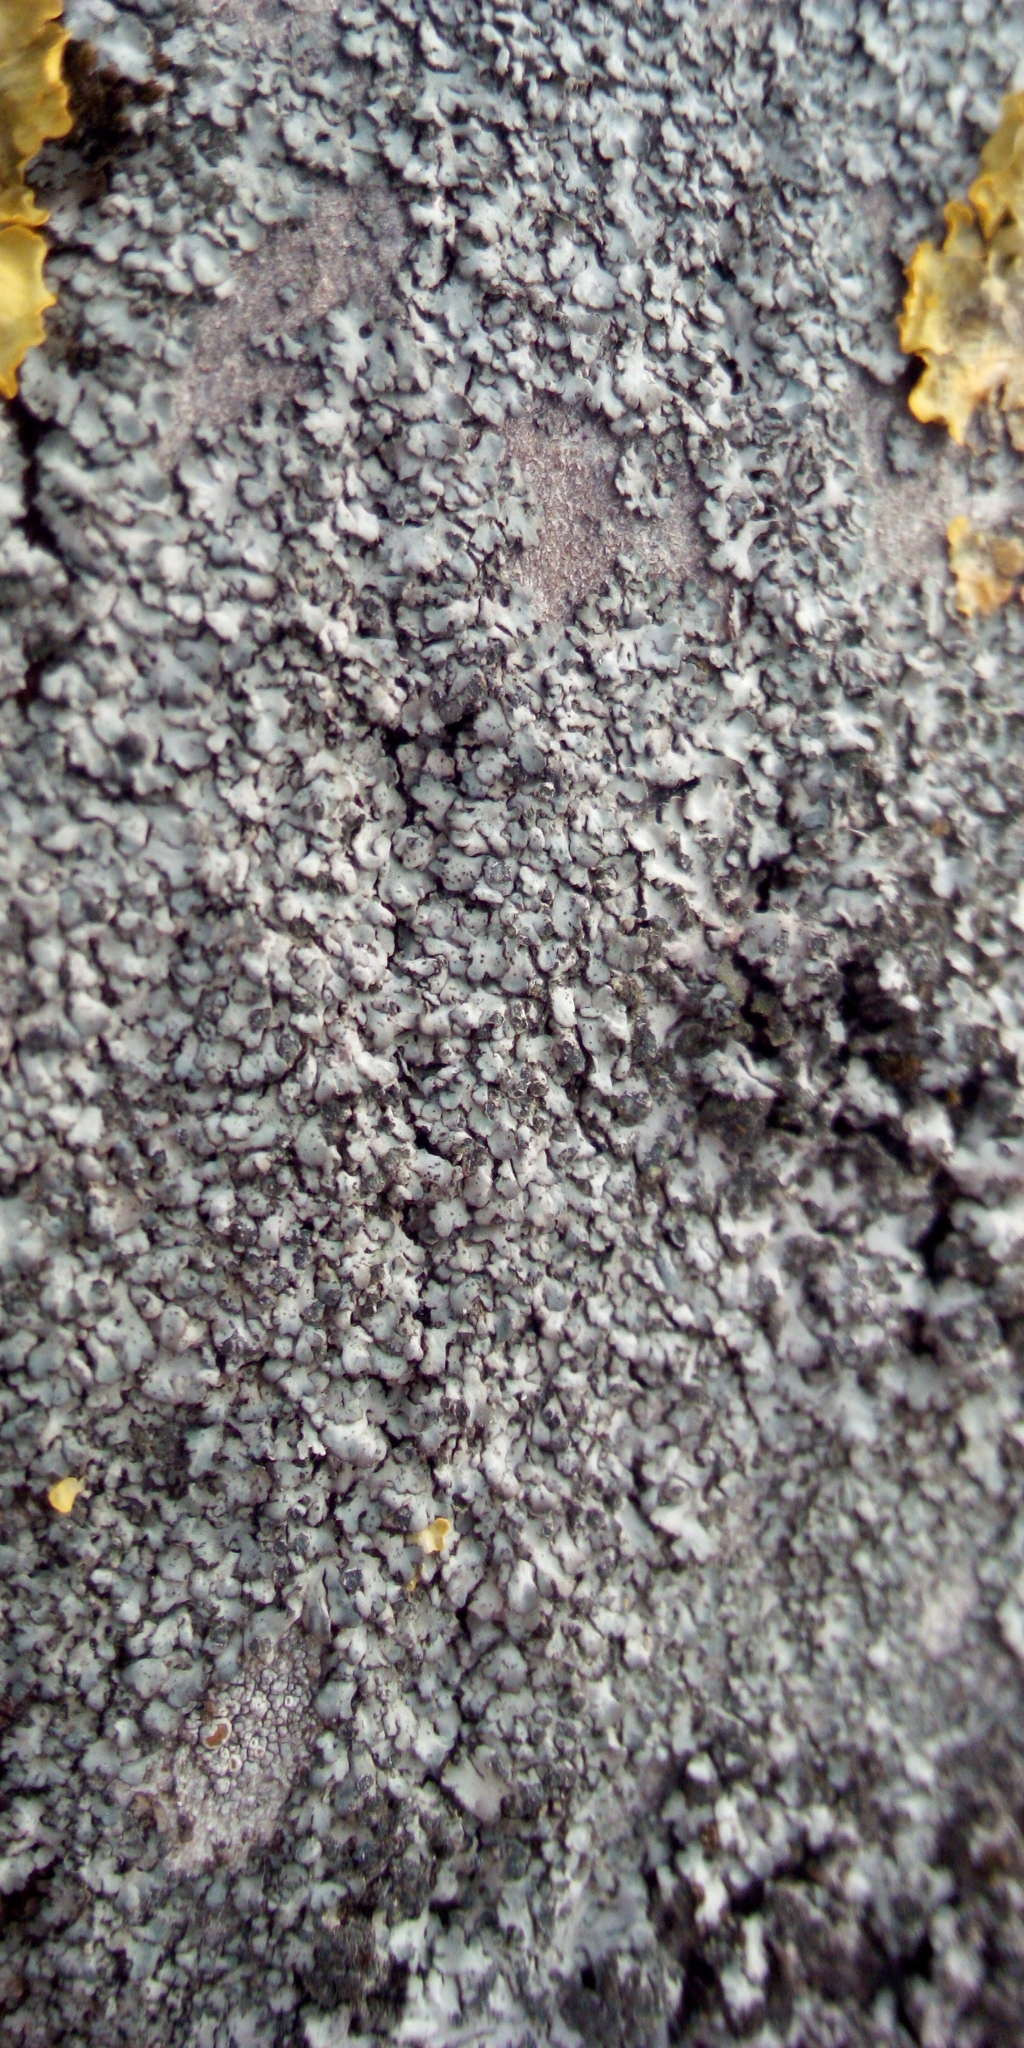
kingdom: Fungi
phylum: Ascomycota
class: Lecanoromycetes
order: Caliciales
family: Physciaceae
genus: Phaeophyscia
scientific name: Phaeophyscia orbicularis
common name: Mealy shadow lichen
